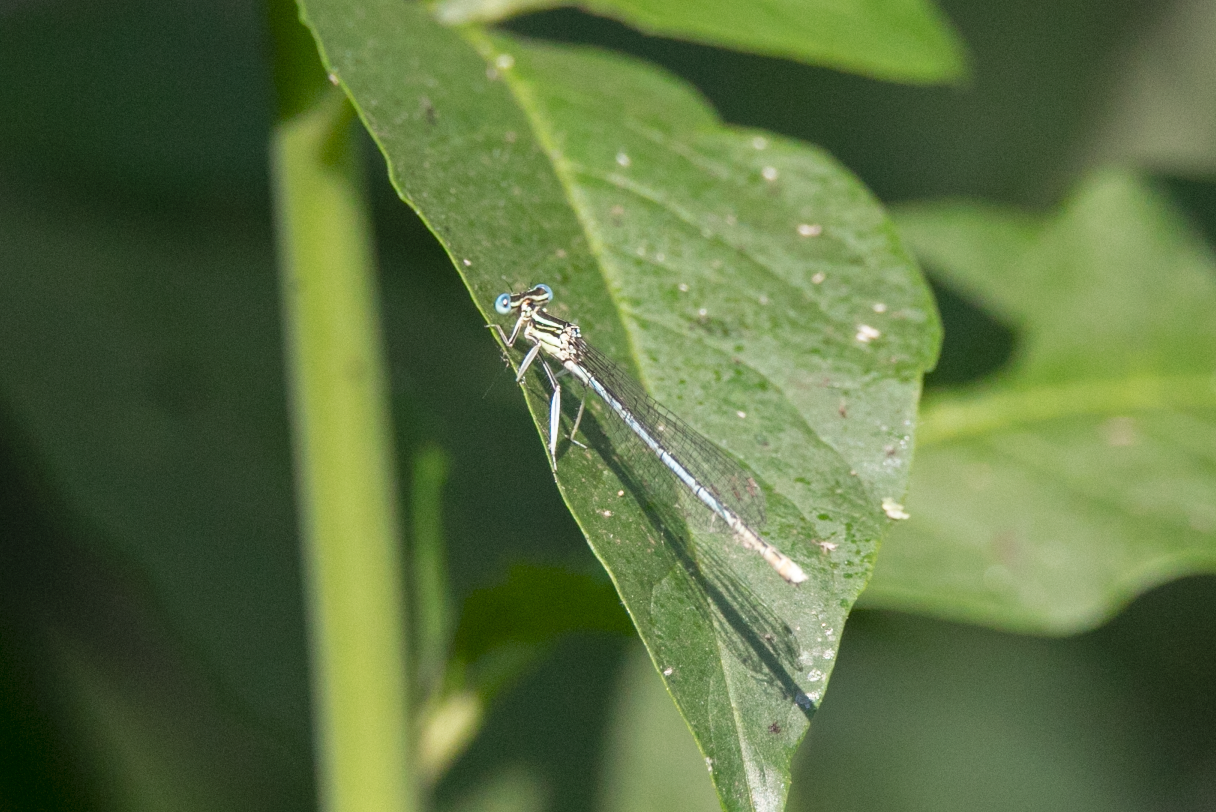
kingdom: Animalia
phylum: Arthropoda
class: Insecta
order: Odonata
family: Platycnemididae
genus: Platycnemis
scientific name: Platycnemis pennipes
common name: White-legged damselfly
